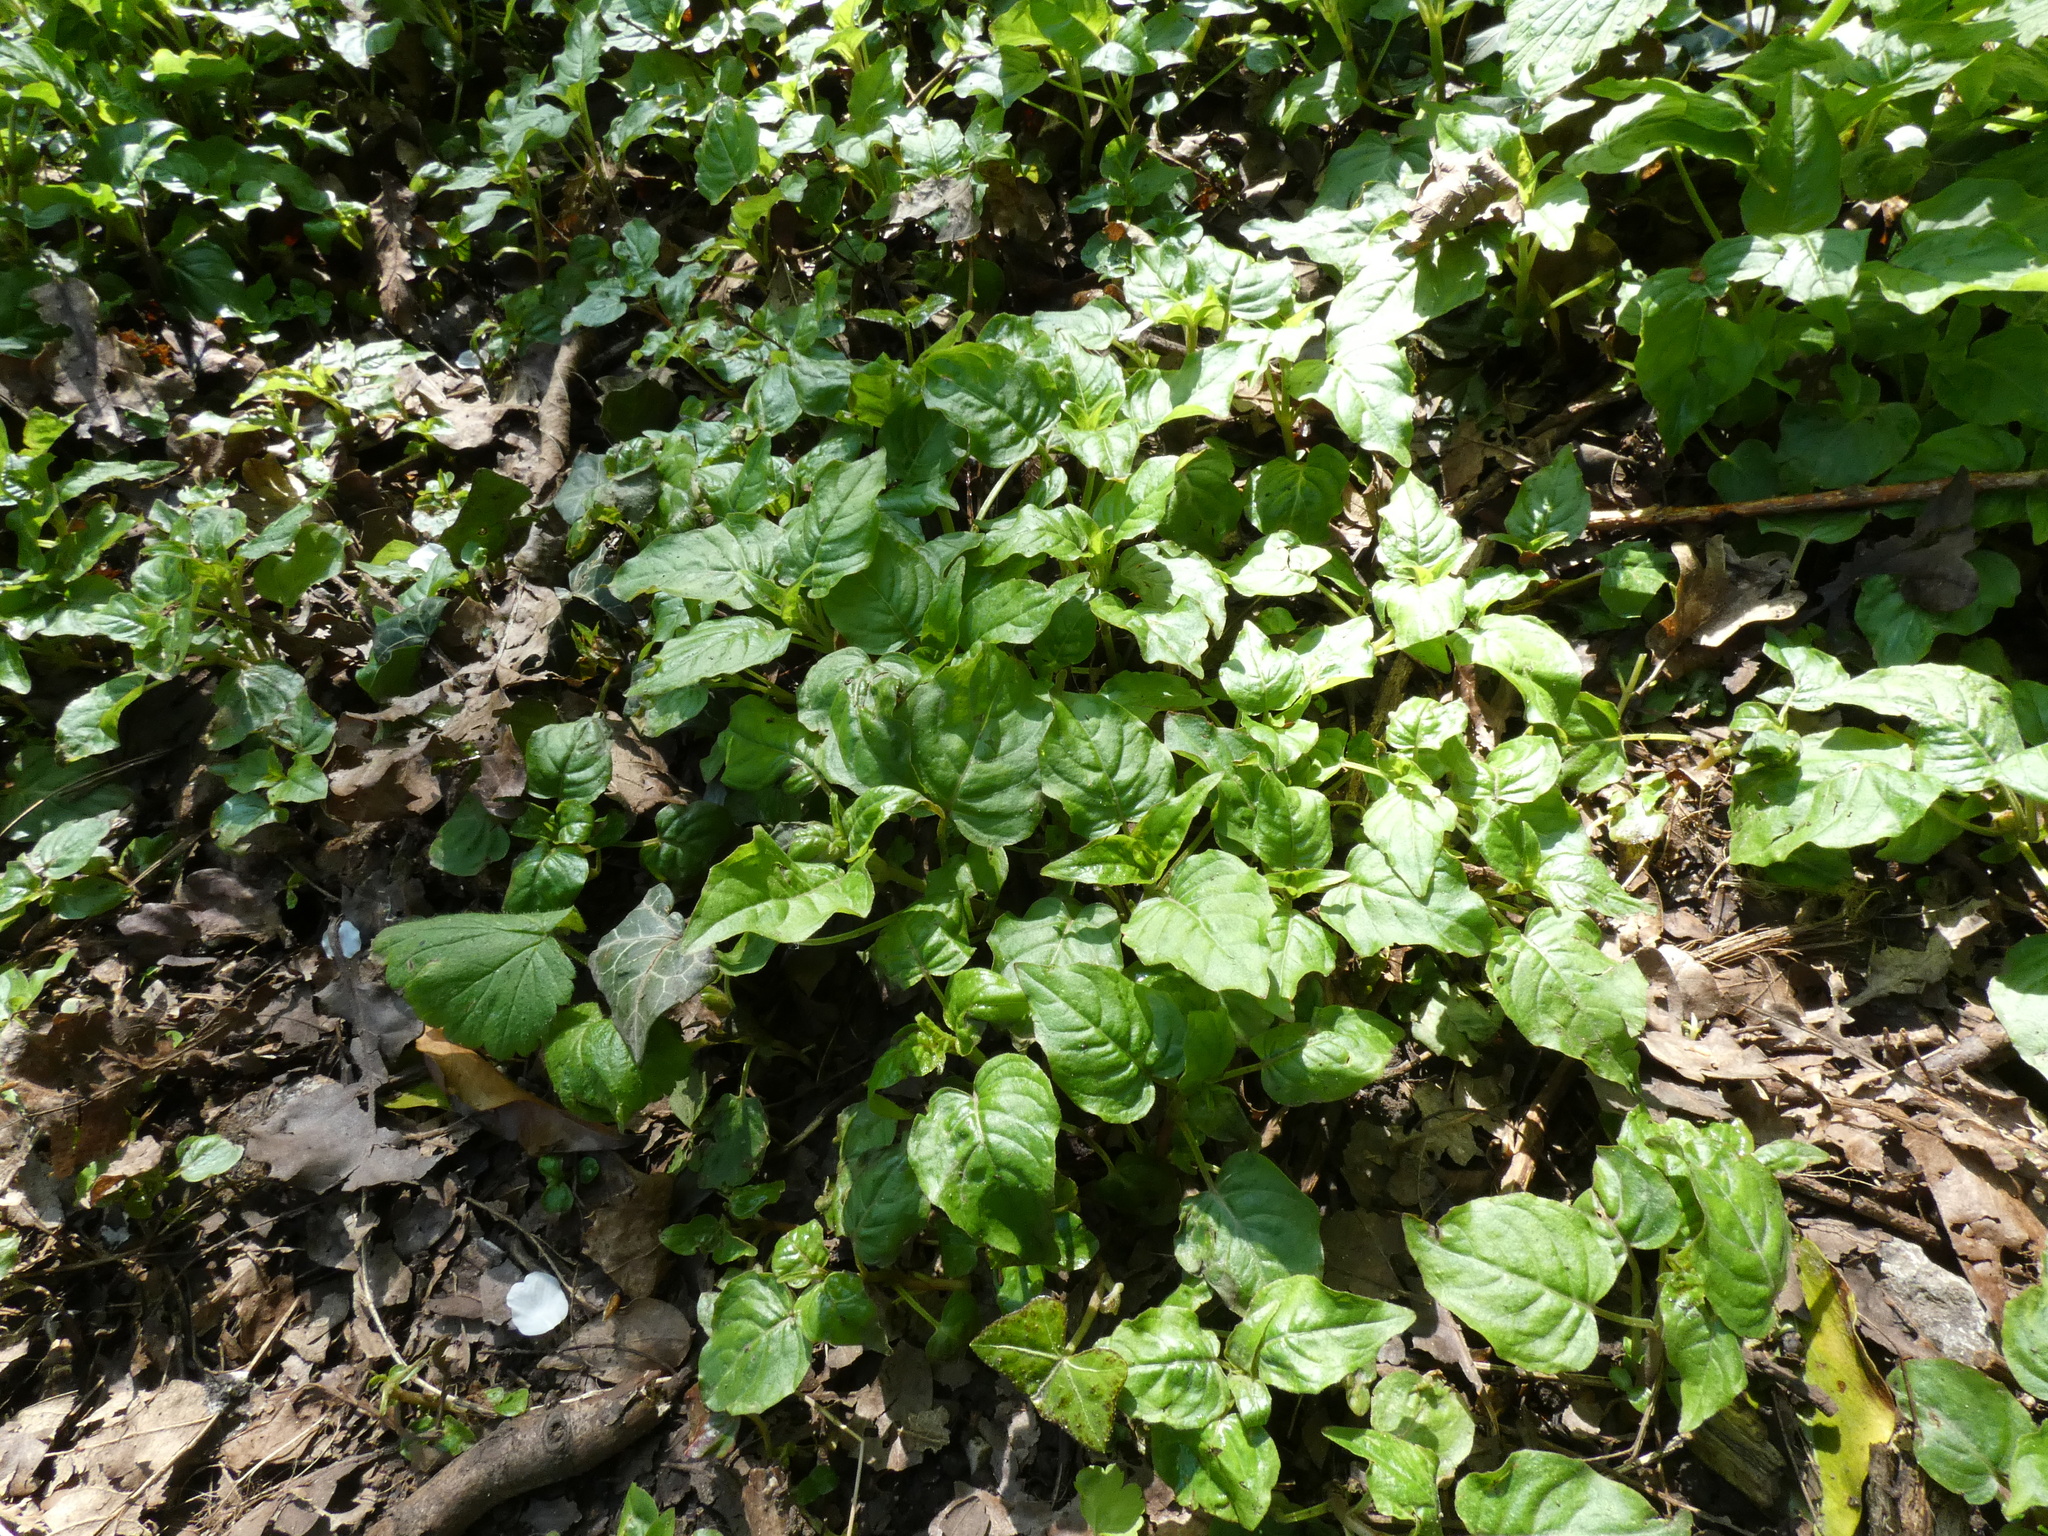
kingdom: Plantae
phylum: Tracheophyta
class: Magnoliopsida
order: Myrtales
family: Onagraceae
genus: Circaea
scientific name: Circaea lutetiana
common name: Enchanter's-nightshade
